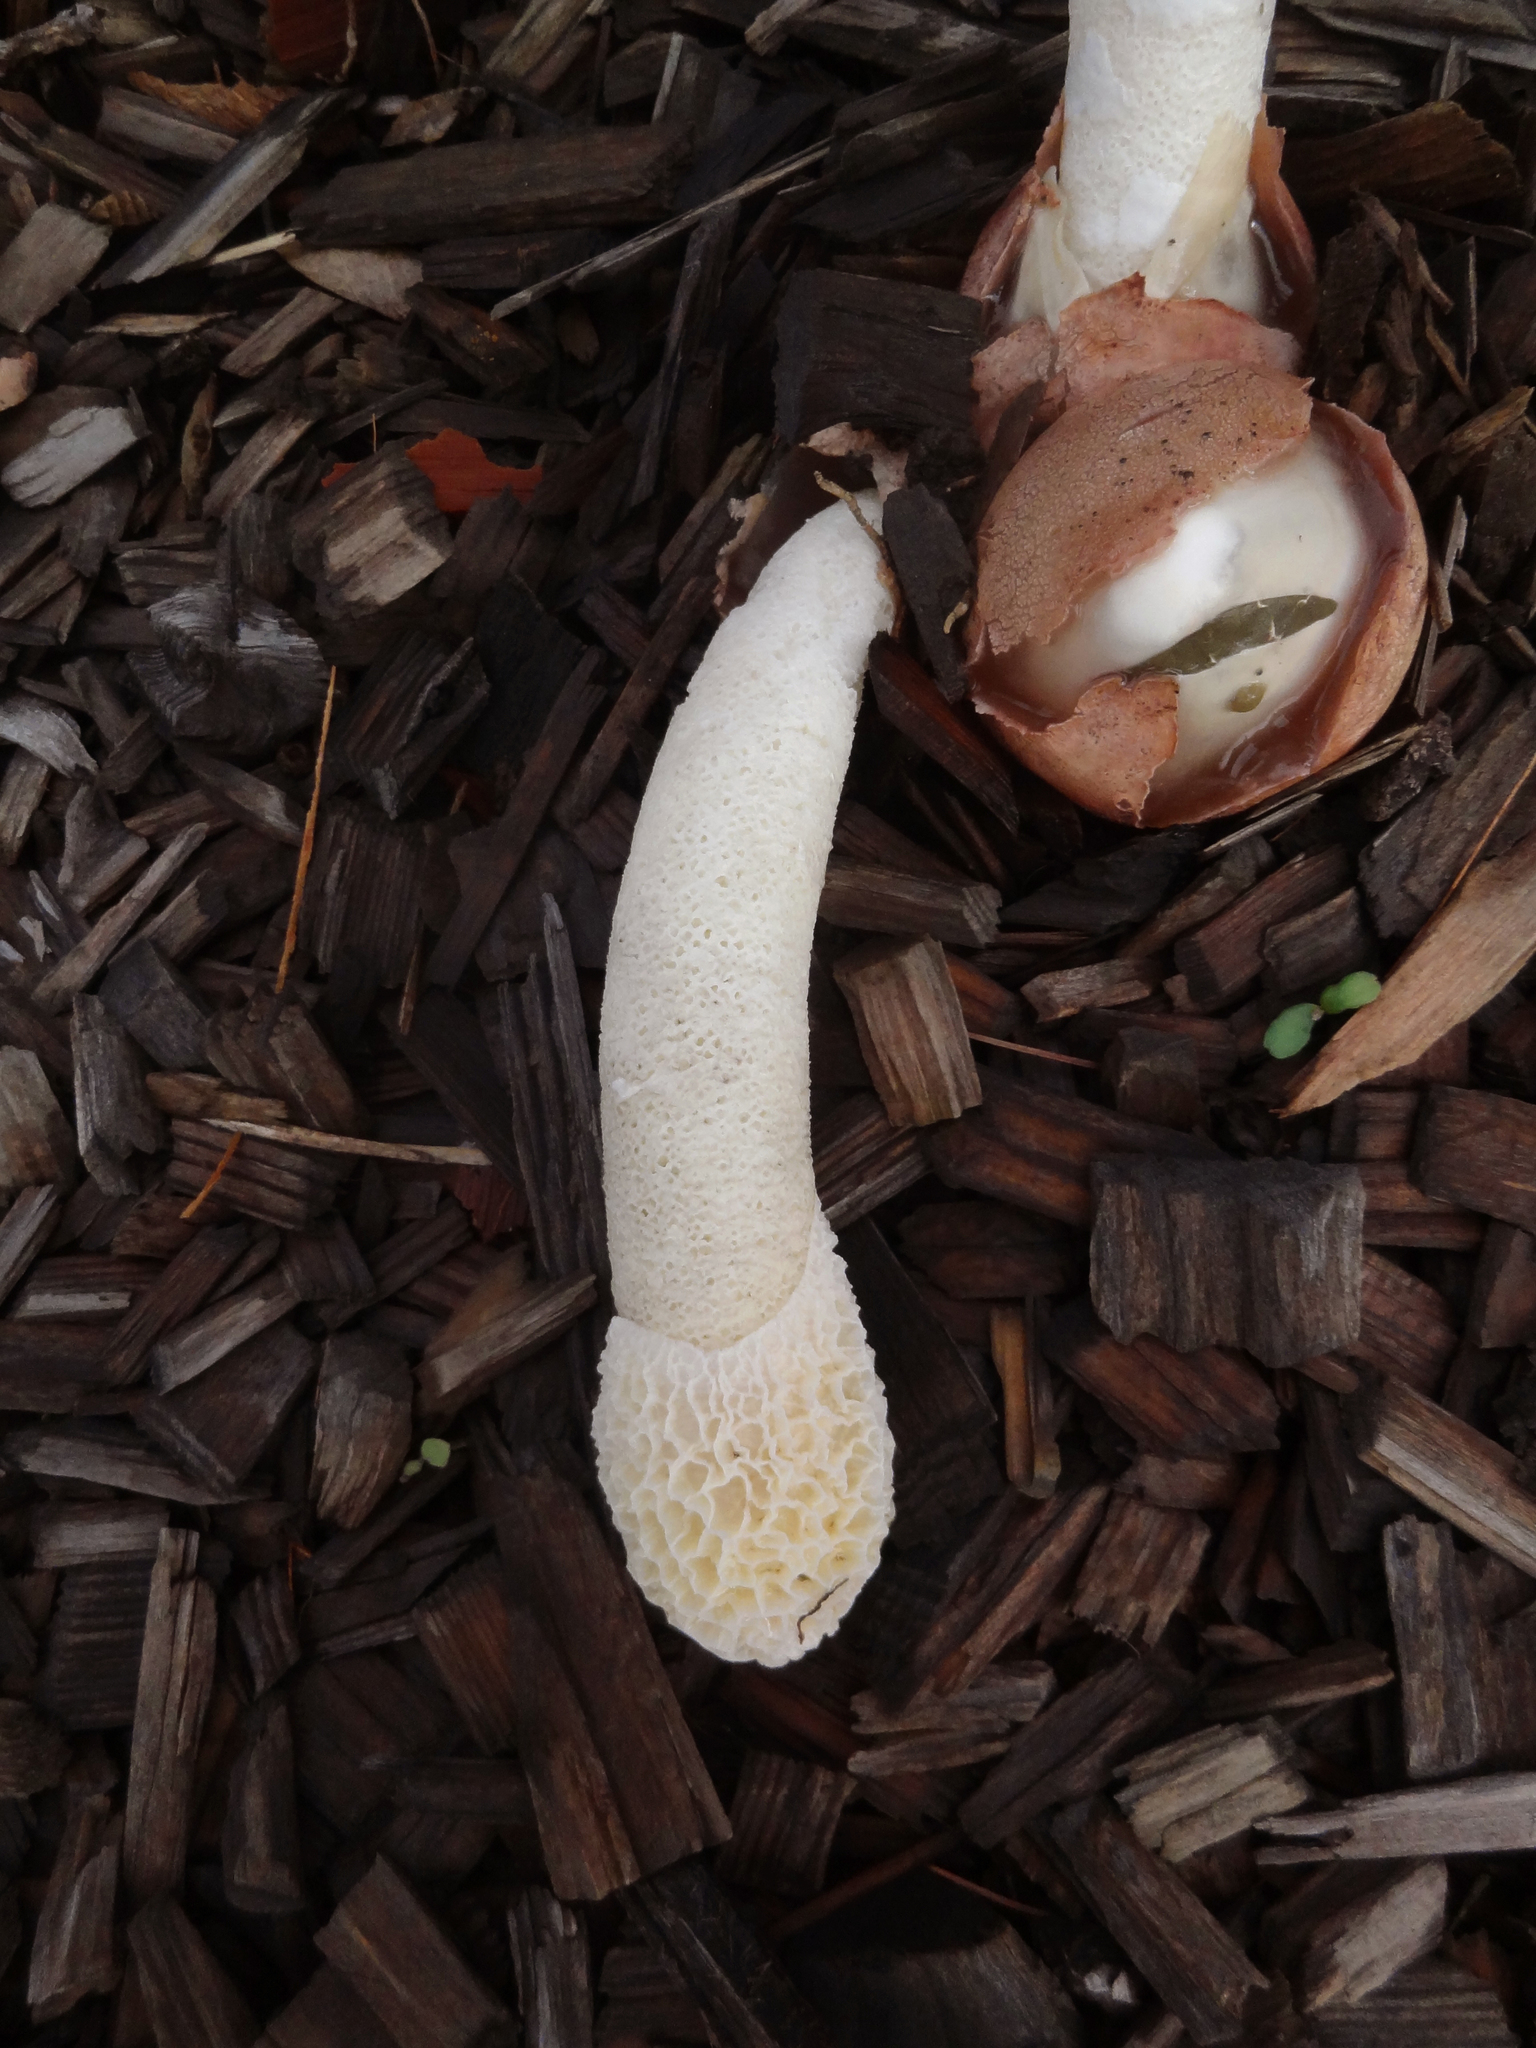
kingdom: Fungi
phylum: Basidiomycota
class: Agaricomycetes
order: Phallales
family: Phallaceae
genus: Phallus
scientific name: Phallus hadriani
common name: Sand stinkhorn
